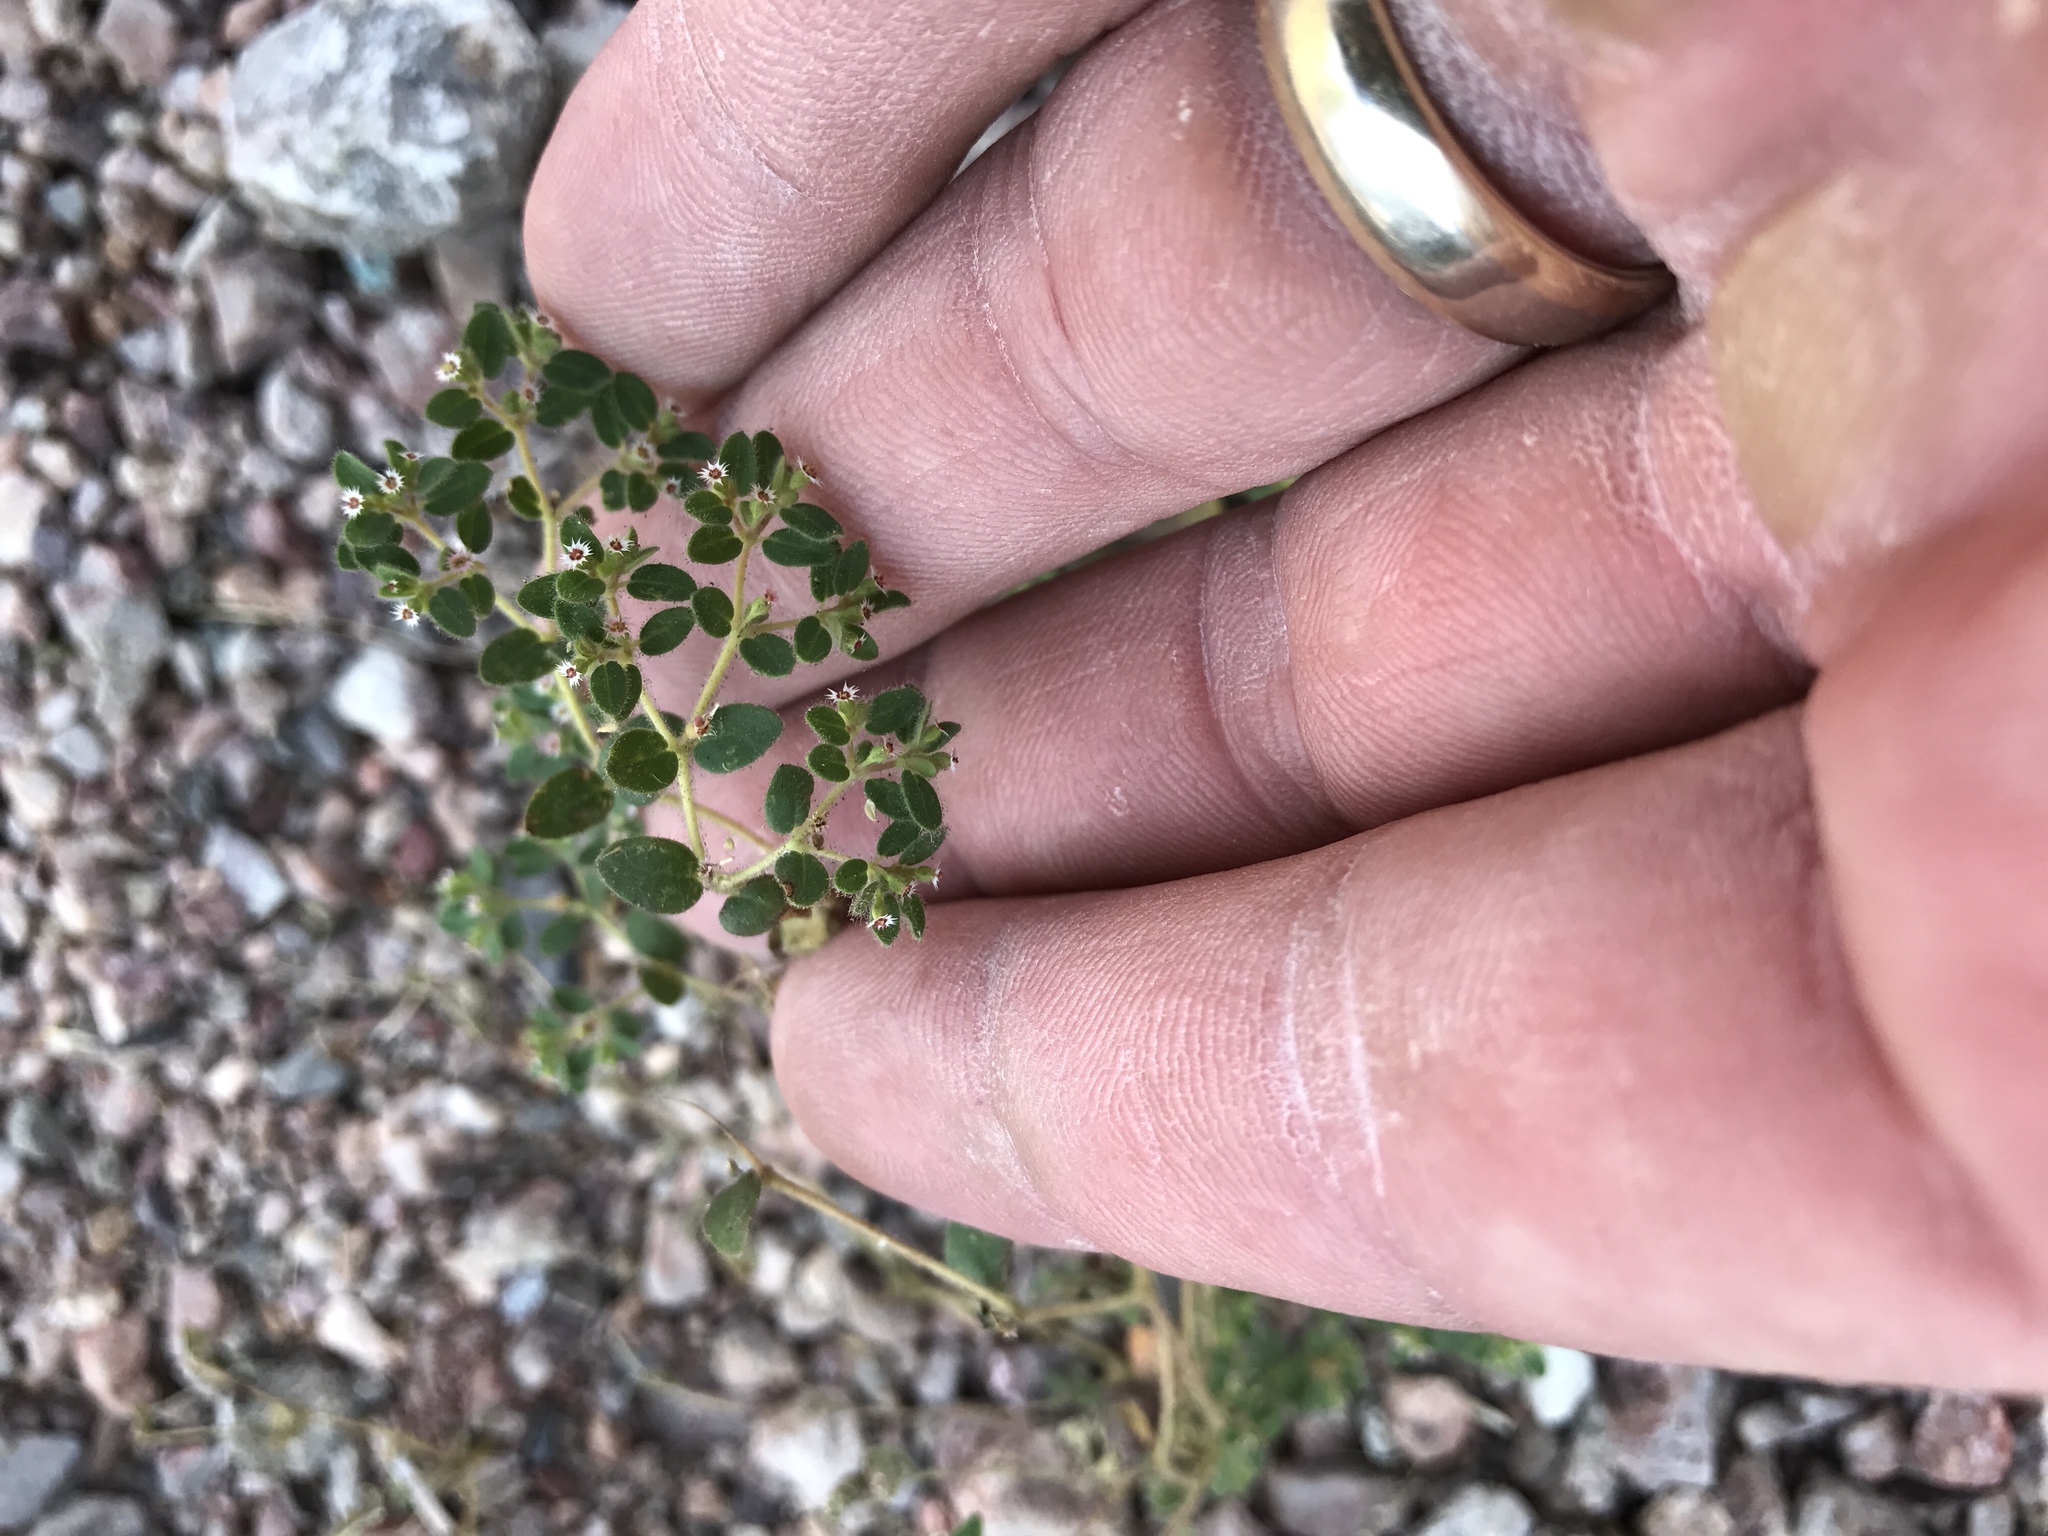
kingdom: Plantae
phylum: Tracheophyta
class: Magnoliopsida
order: Malpighiales
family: Euphorbiaceae
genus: Euphorbia
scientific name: Euphorbia setiloba
